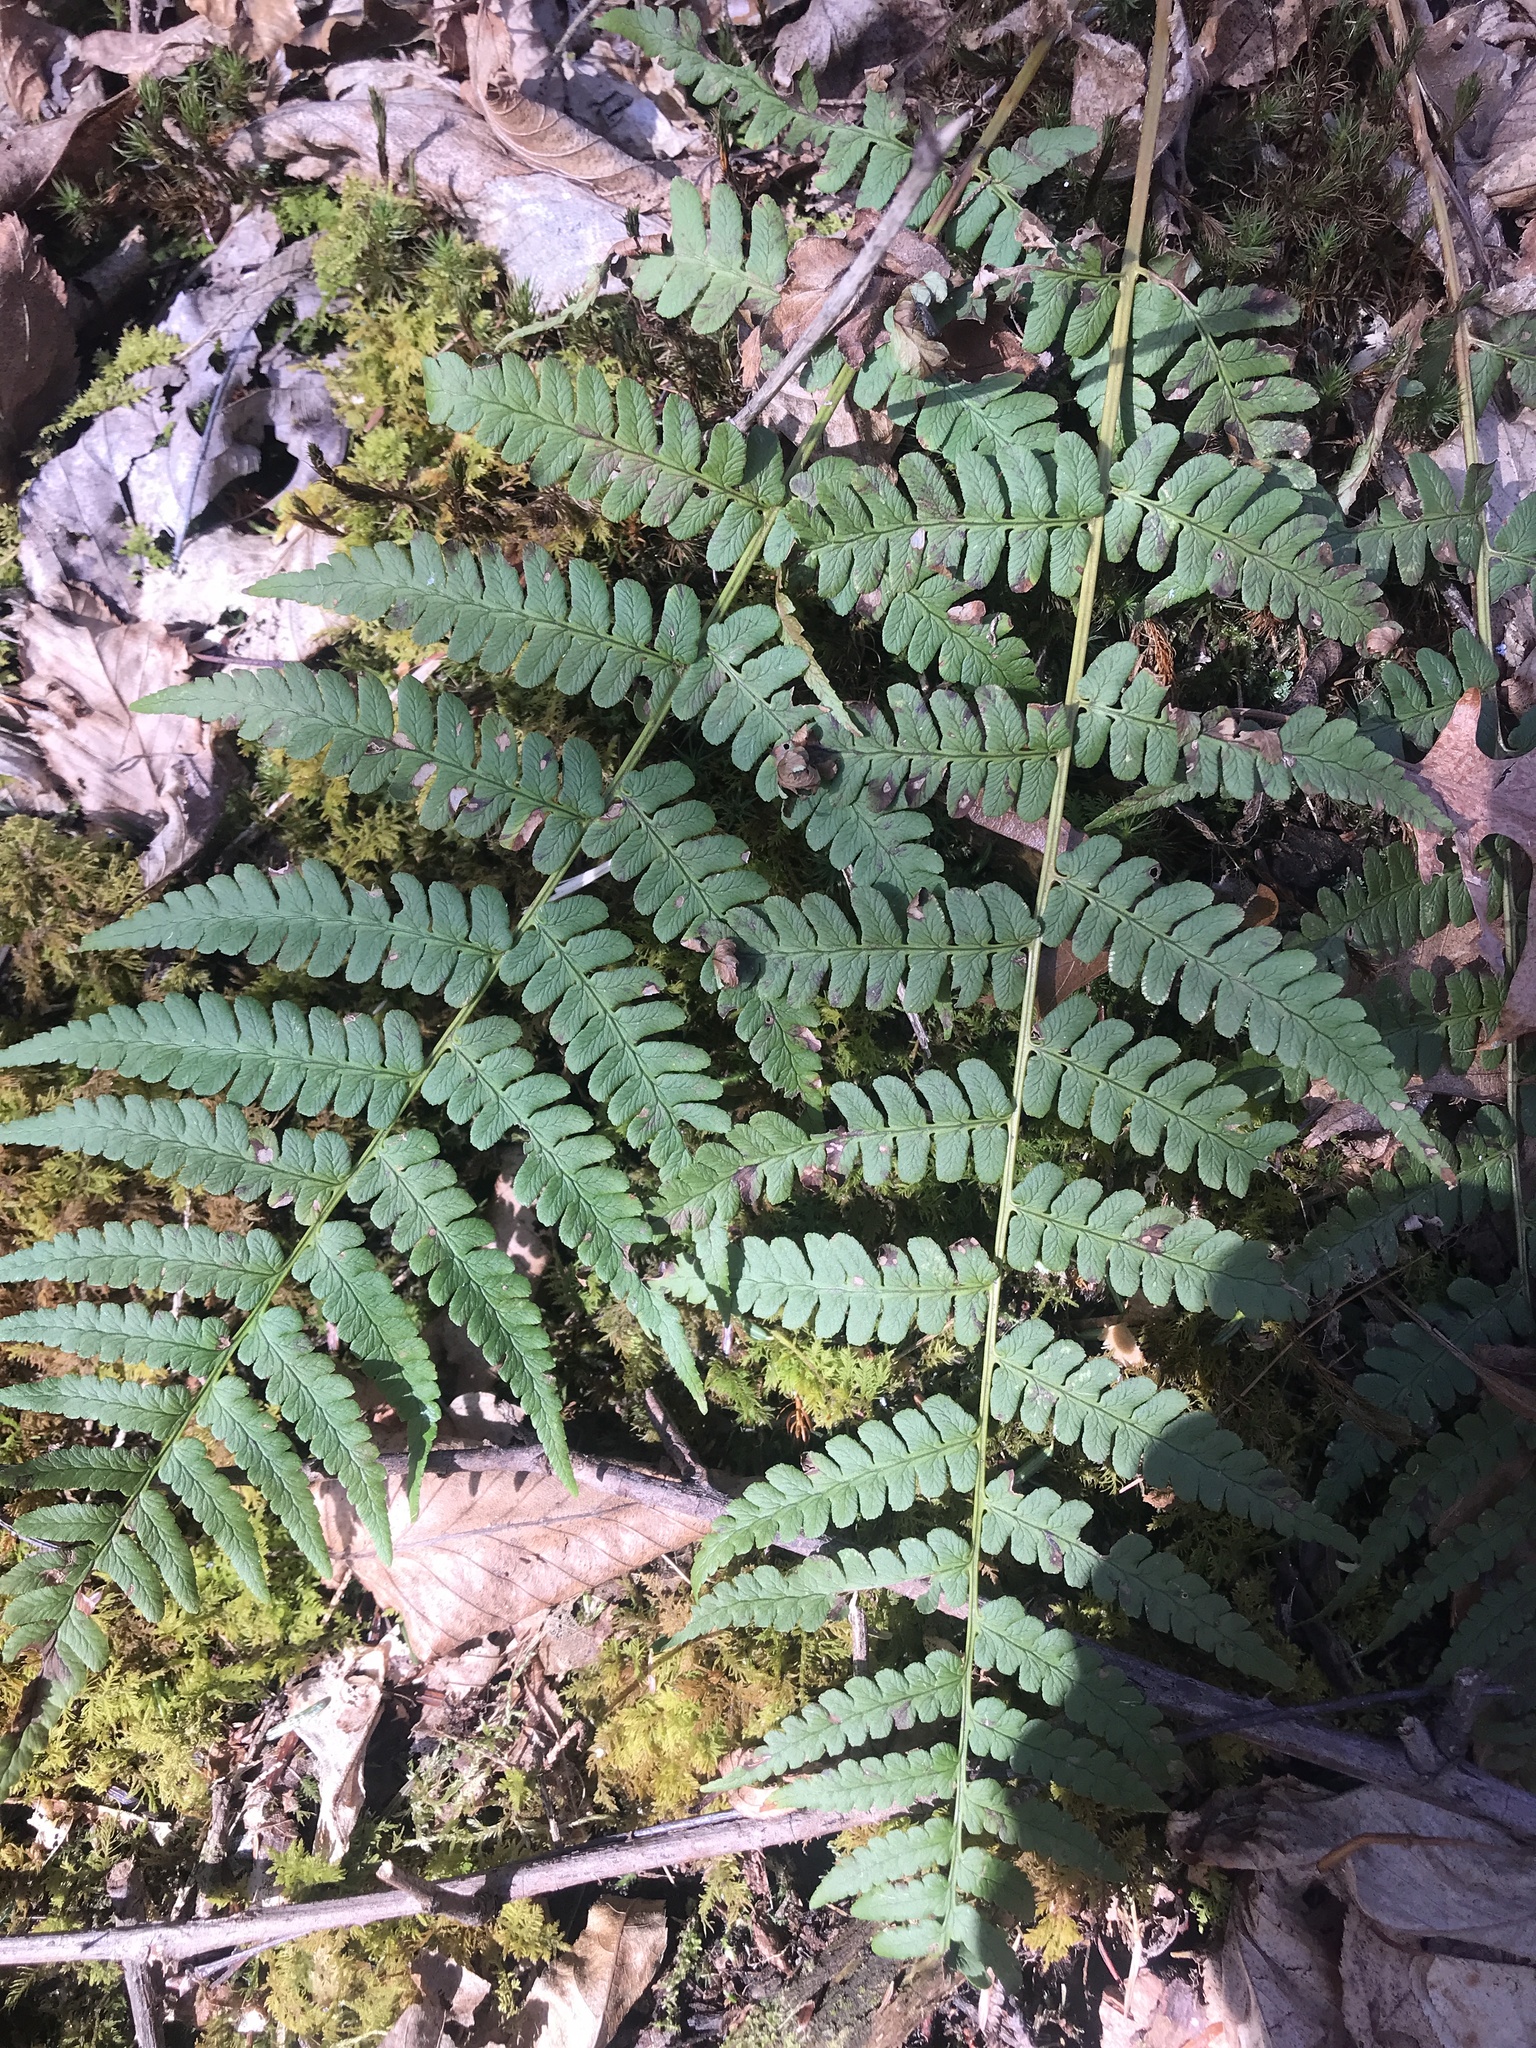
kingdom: Plantae
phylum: Tracheophyta
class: Polypodiopsida
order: Polypodiales
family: Dryopteridaceae
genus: Dryopteris
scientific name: Dryopteris marginalis
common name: Marginal wood fern
